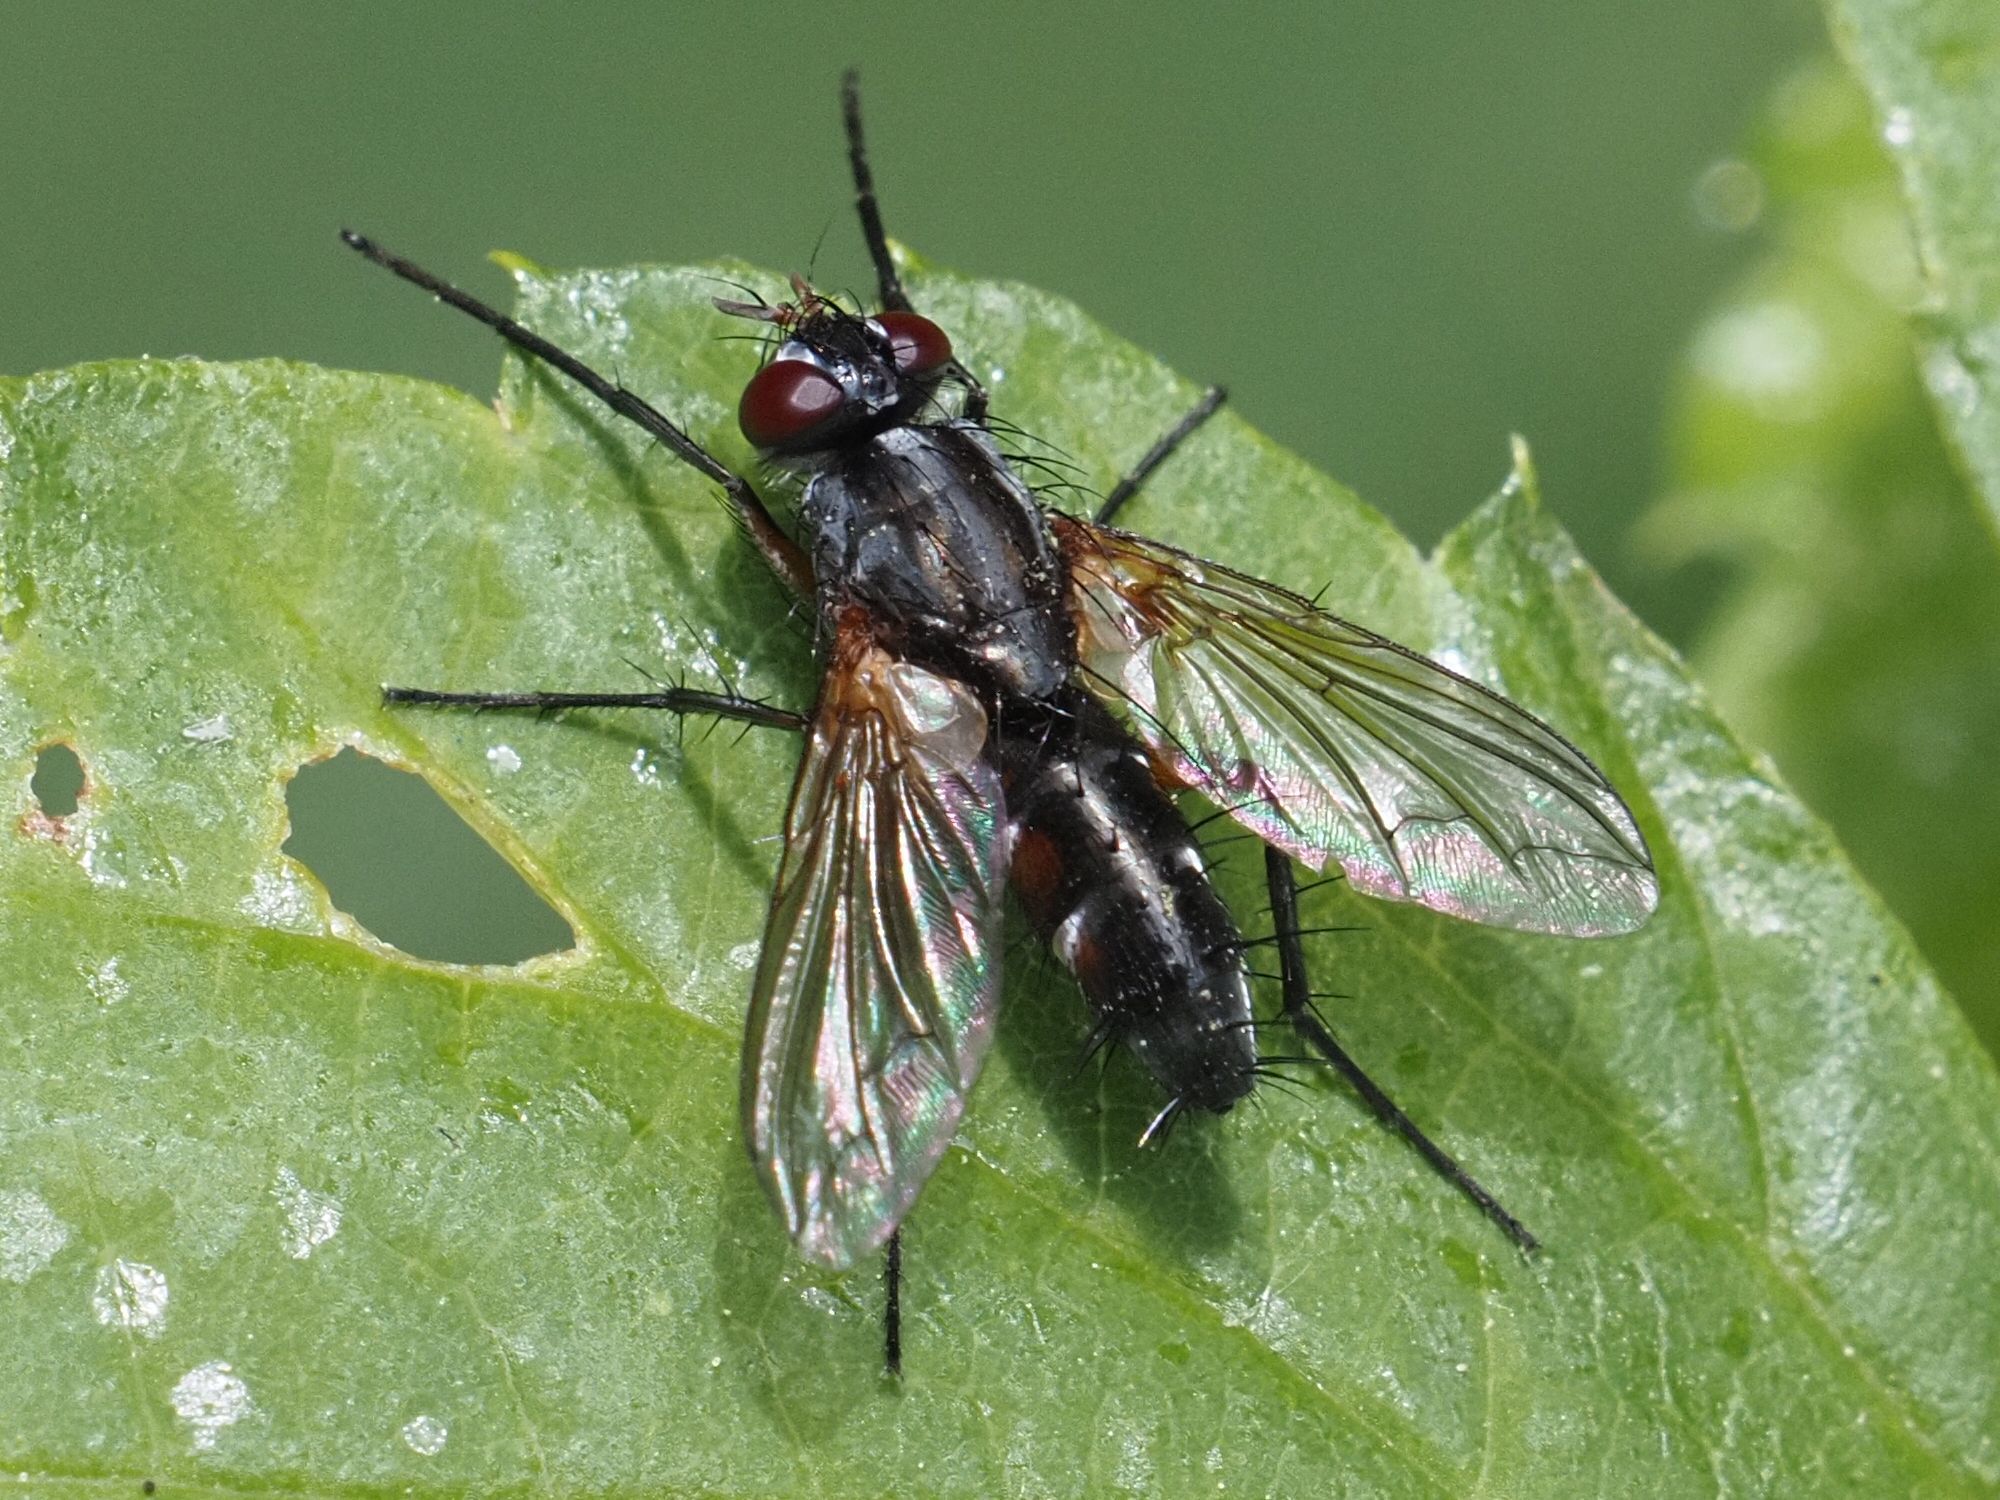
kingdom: Animalia
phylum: Arthropoda
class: Insecta
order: Diptera
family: Tachinidae
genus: Mintho
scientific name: Mintho rufiventris
